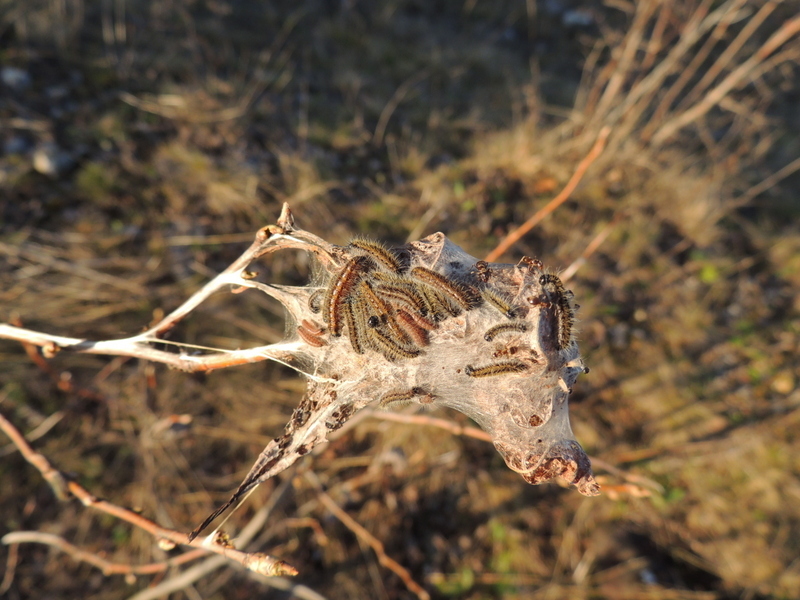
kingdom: Animalia
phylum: Arthropoda
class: Insecta
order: Lepidoptera
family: Pieridae
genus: Aporia
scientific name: Aporia crataegi
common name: Black-veined white
